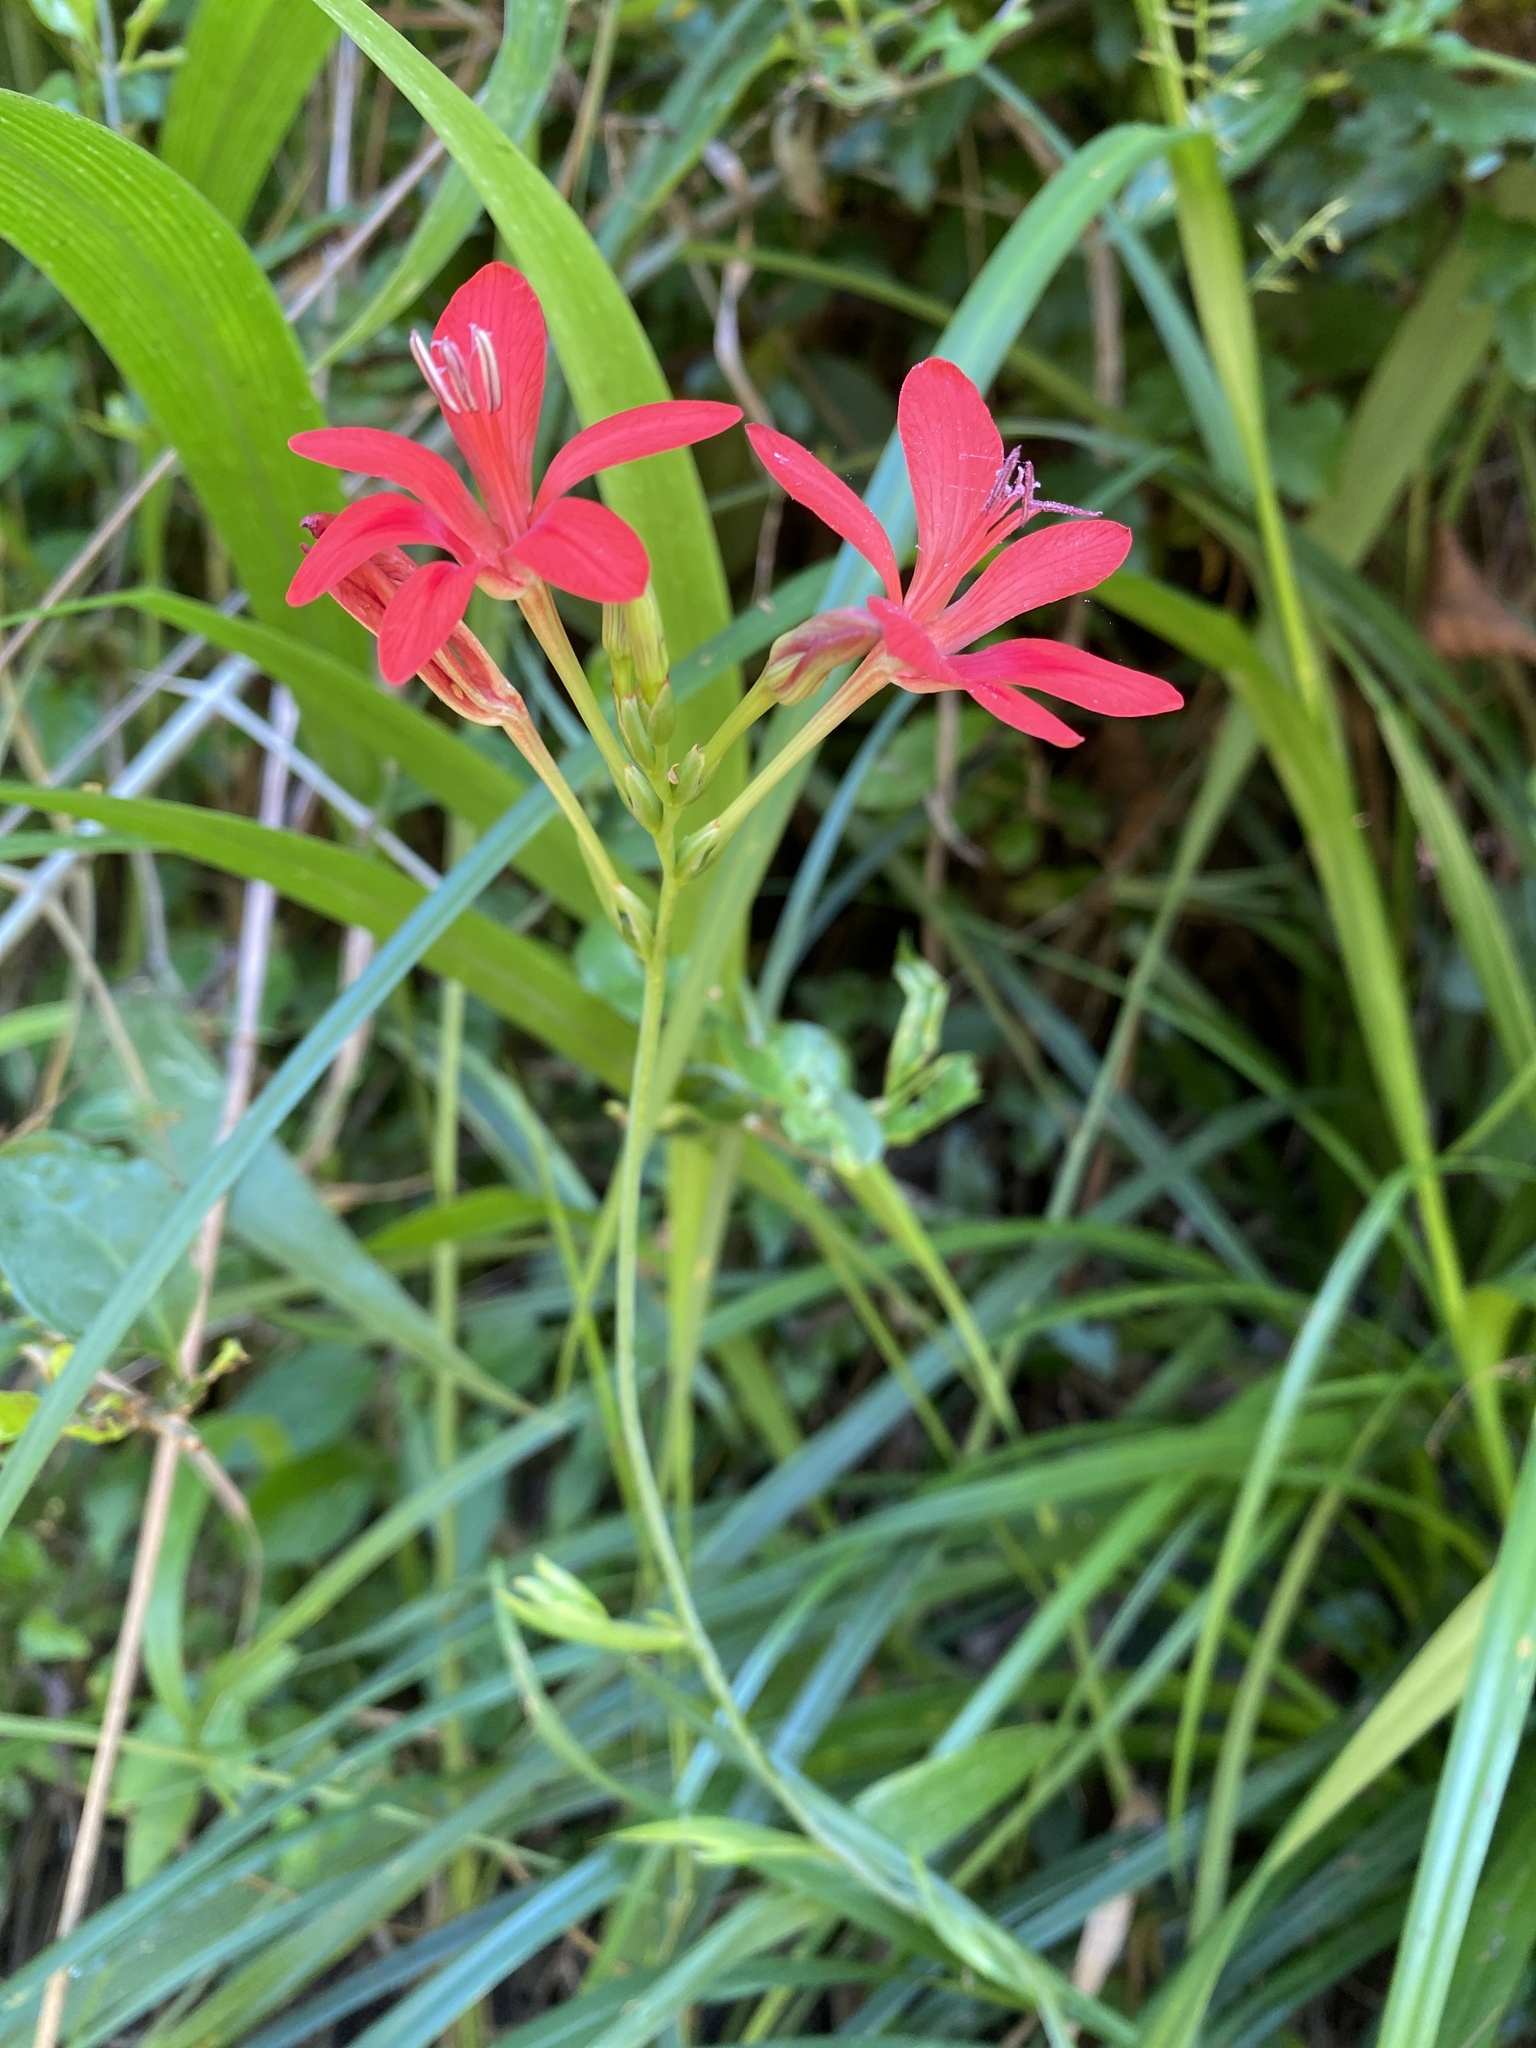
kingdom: Plantae
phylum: Tracheophyta
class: Liliopsida
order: Asparagales
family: Iridaceae
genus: Freesia
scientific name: Freesia grandiflora
